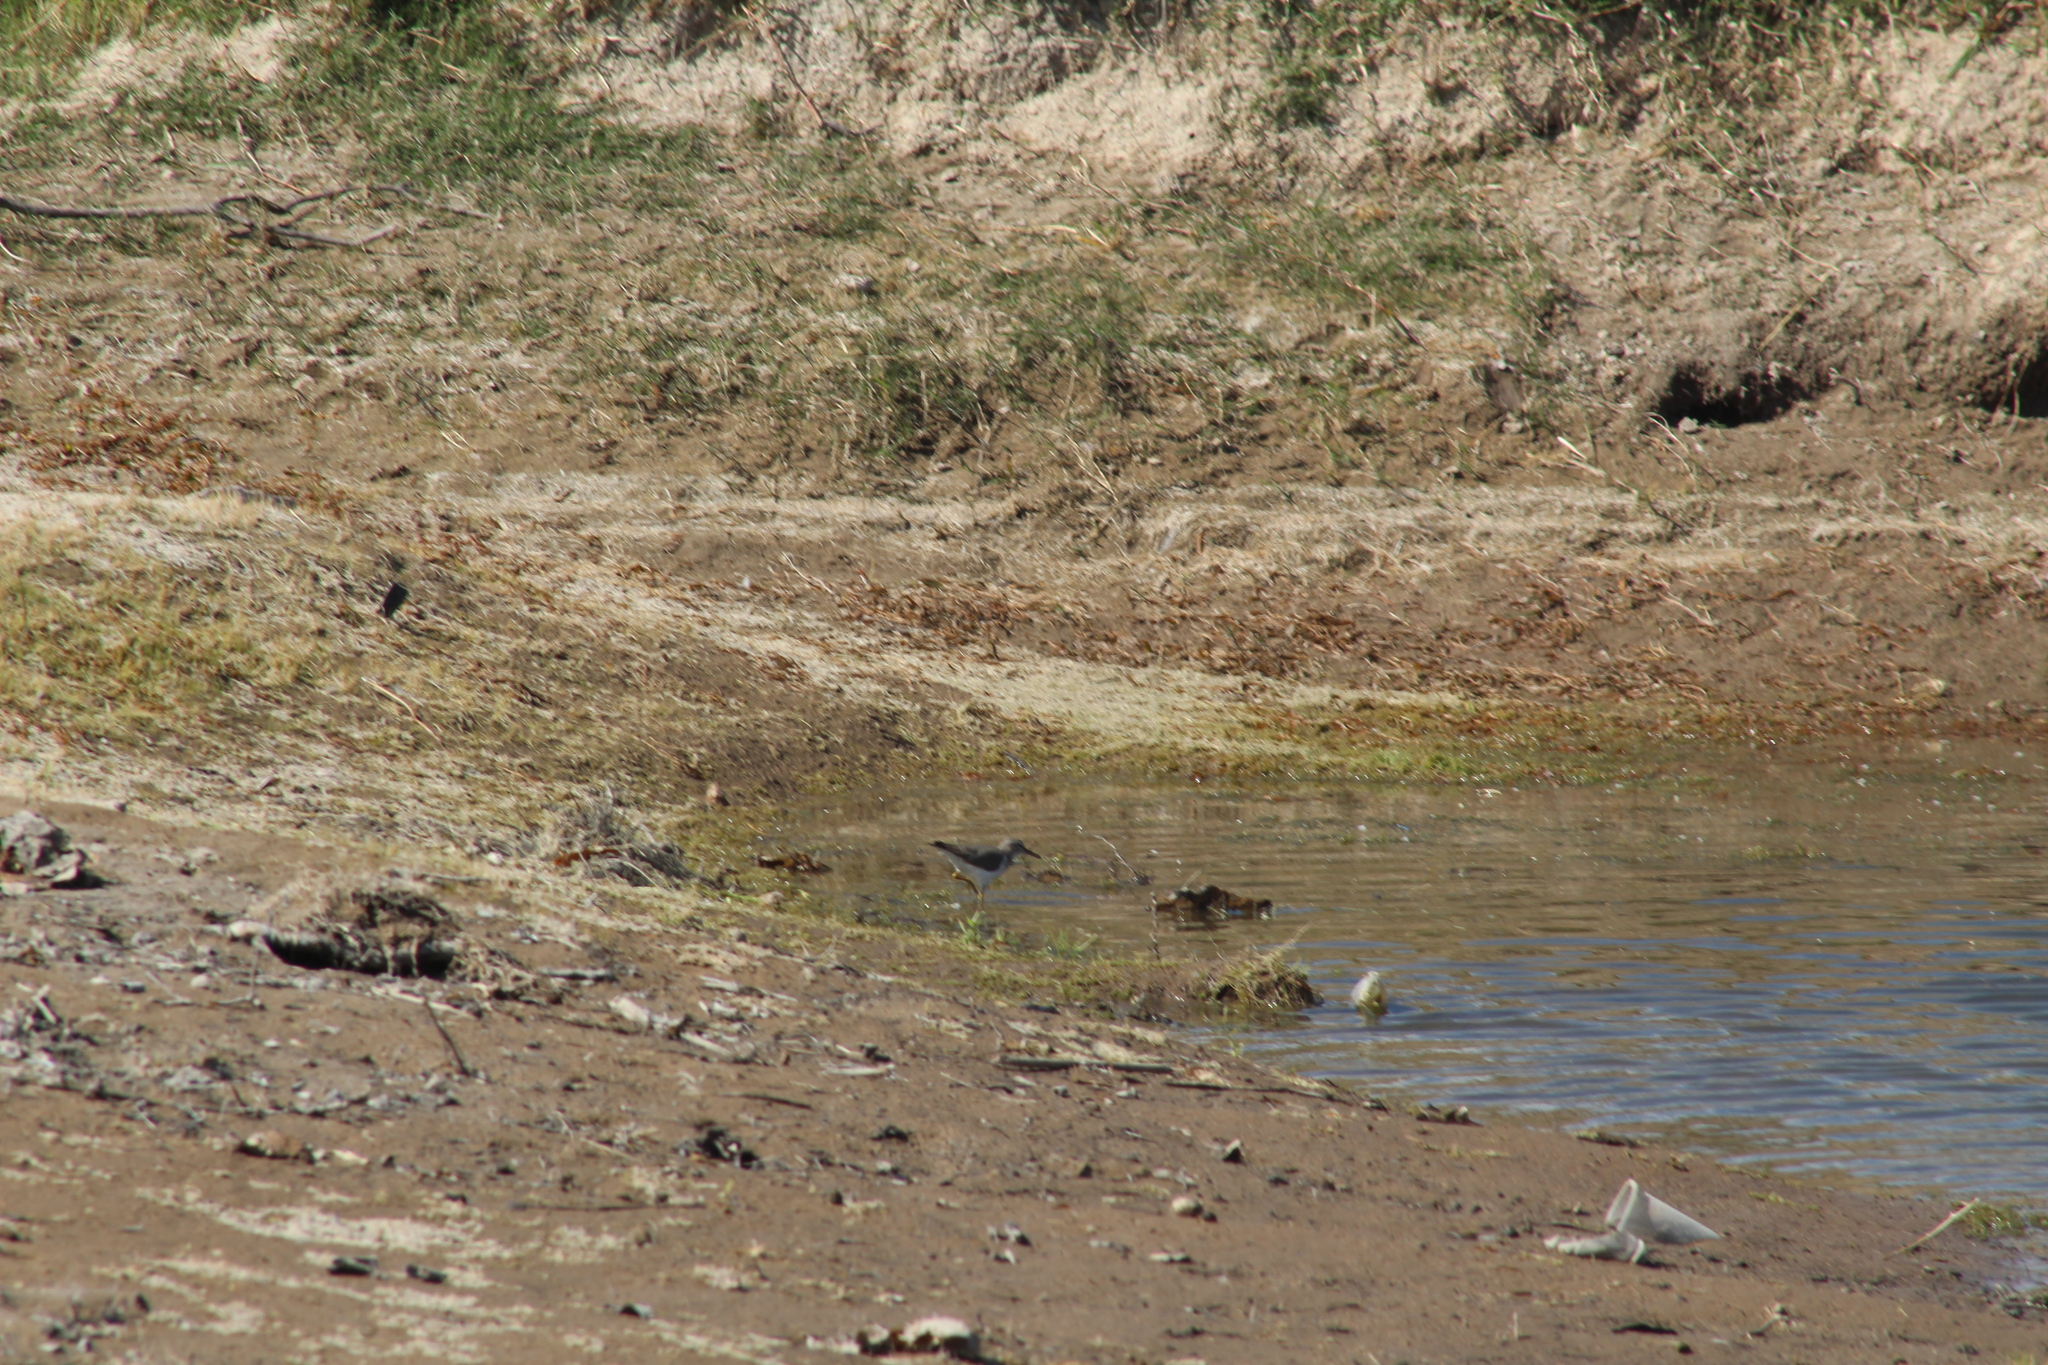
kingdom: Animalia
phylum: Chordata
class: Aves
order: Charadriiformes
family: Scolopacidae
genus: Actitis
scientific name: Actitis macularius
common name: Spotted sandpiper
